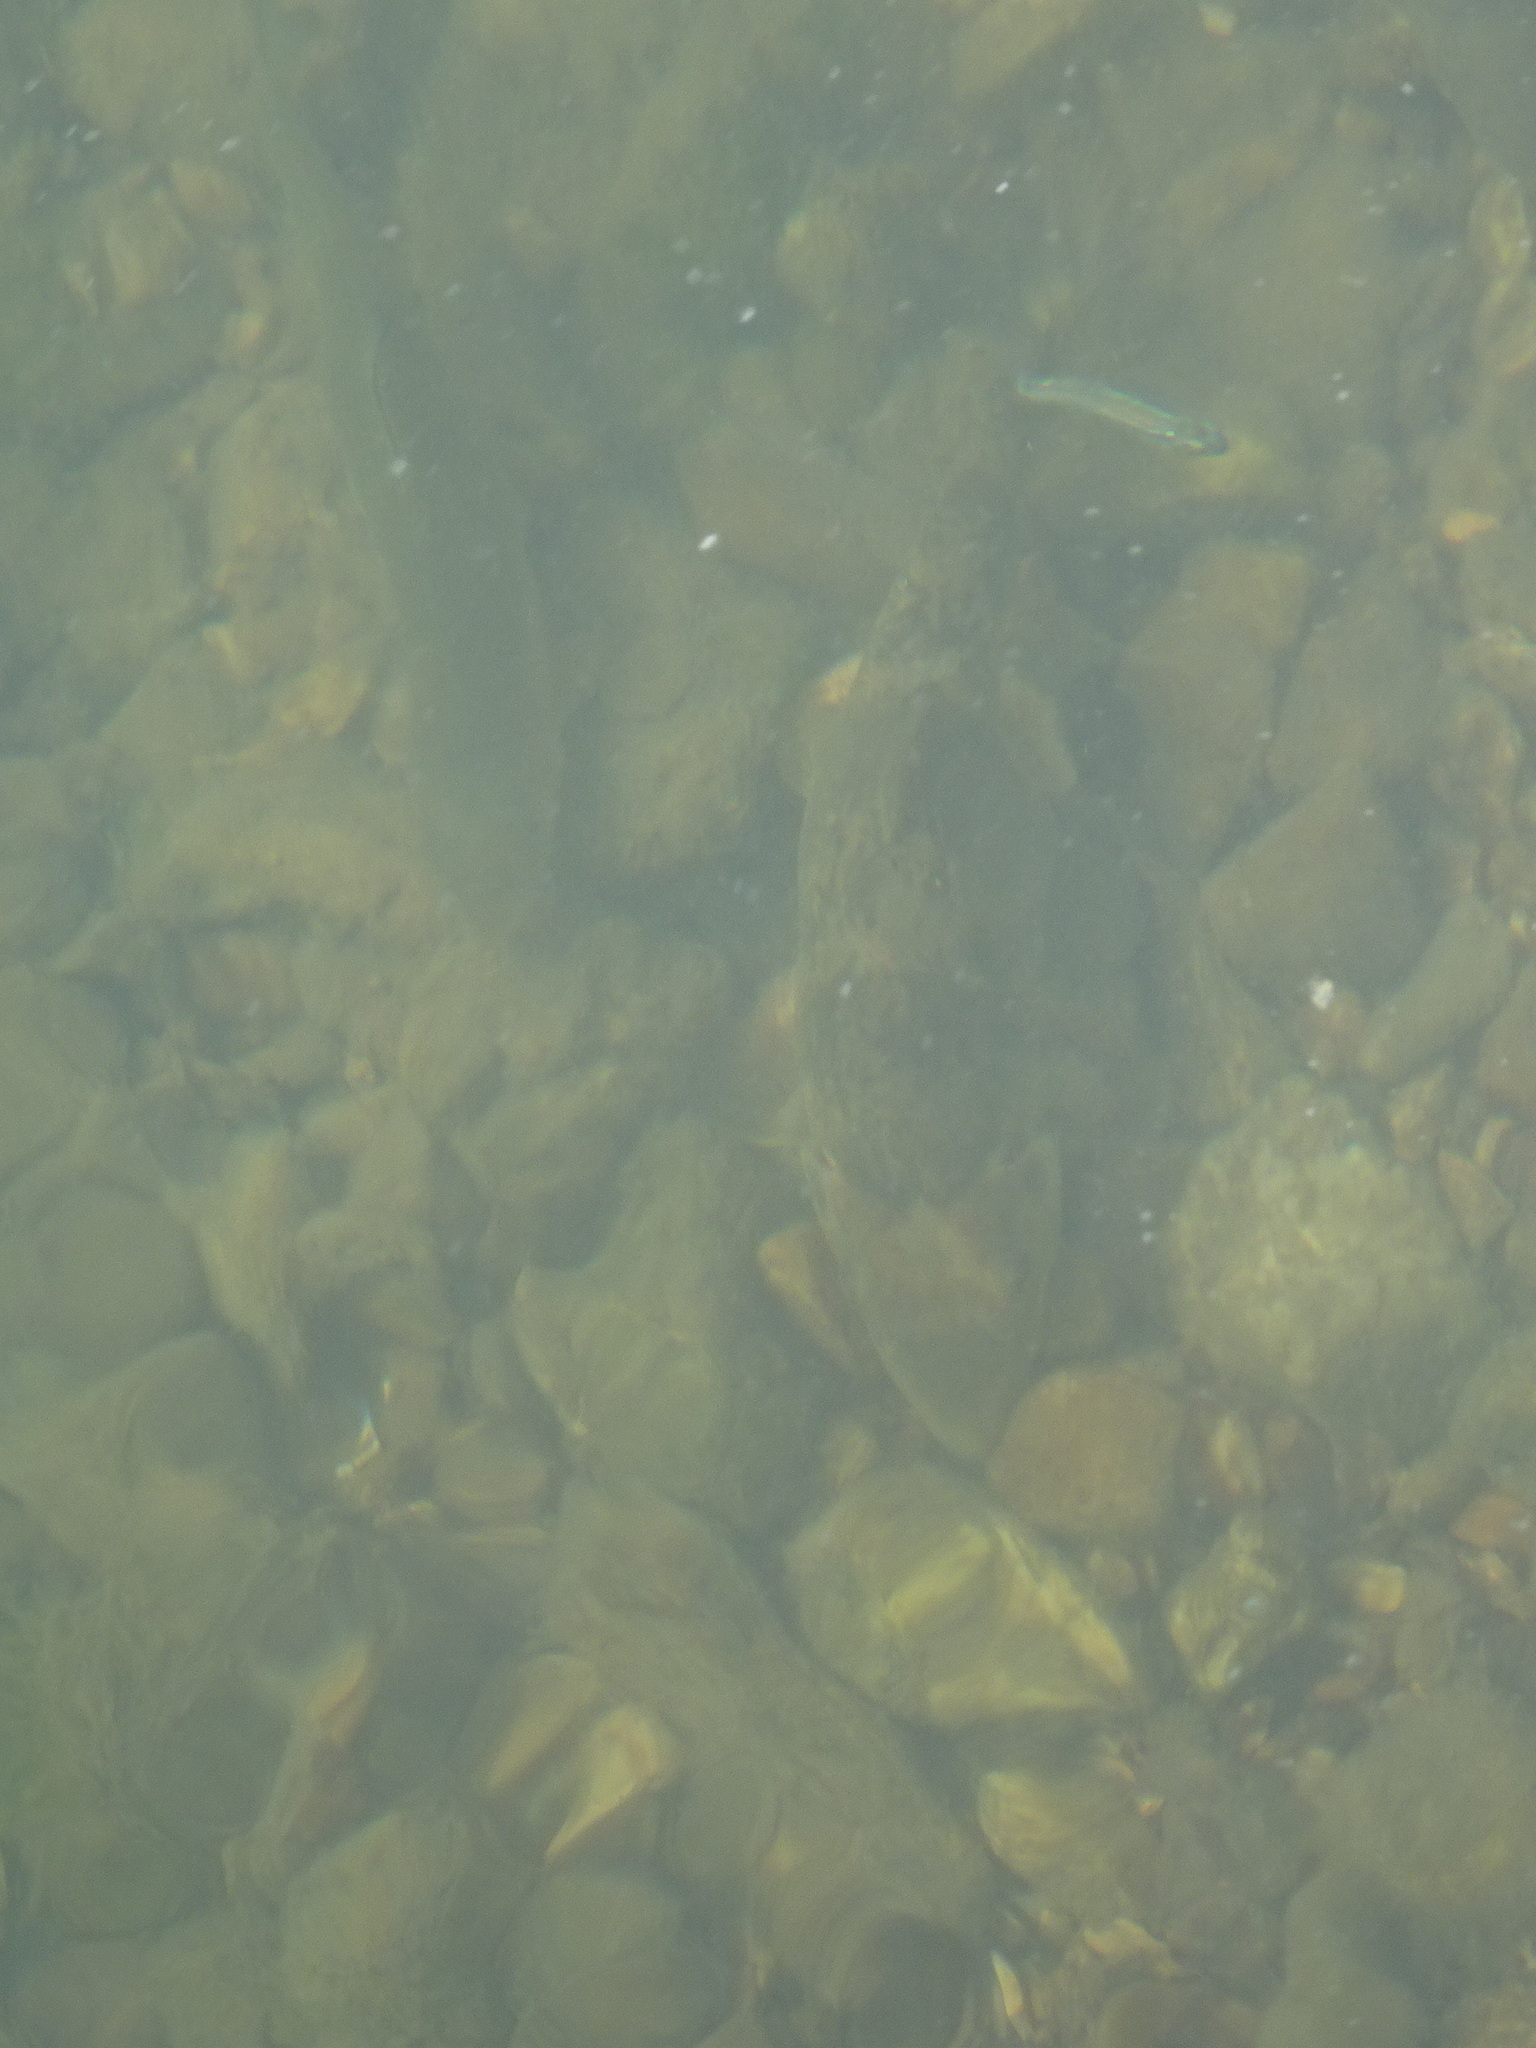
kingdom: Animalia
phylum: Chordata
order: Cypriniformes
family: Catostomidae
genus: Hypentelium
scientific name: Hypentelium nigricans
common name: Northern hog sucker
